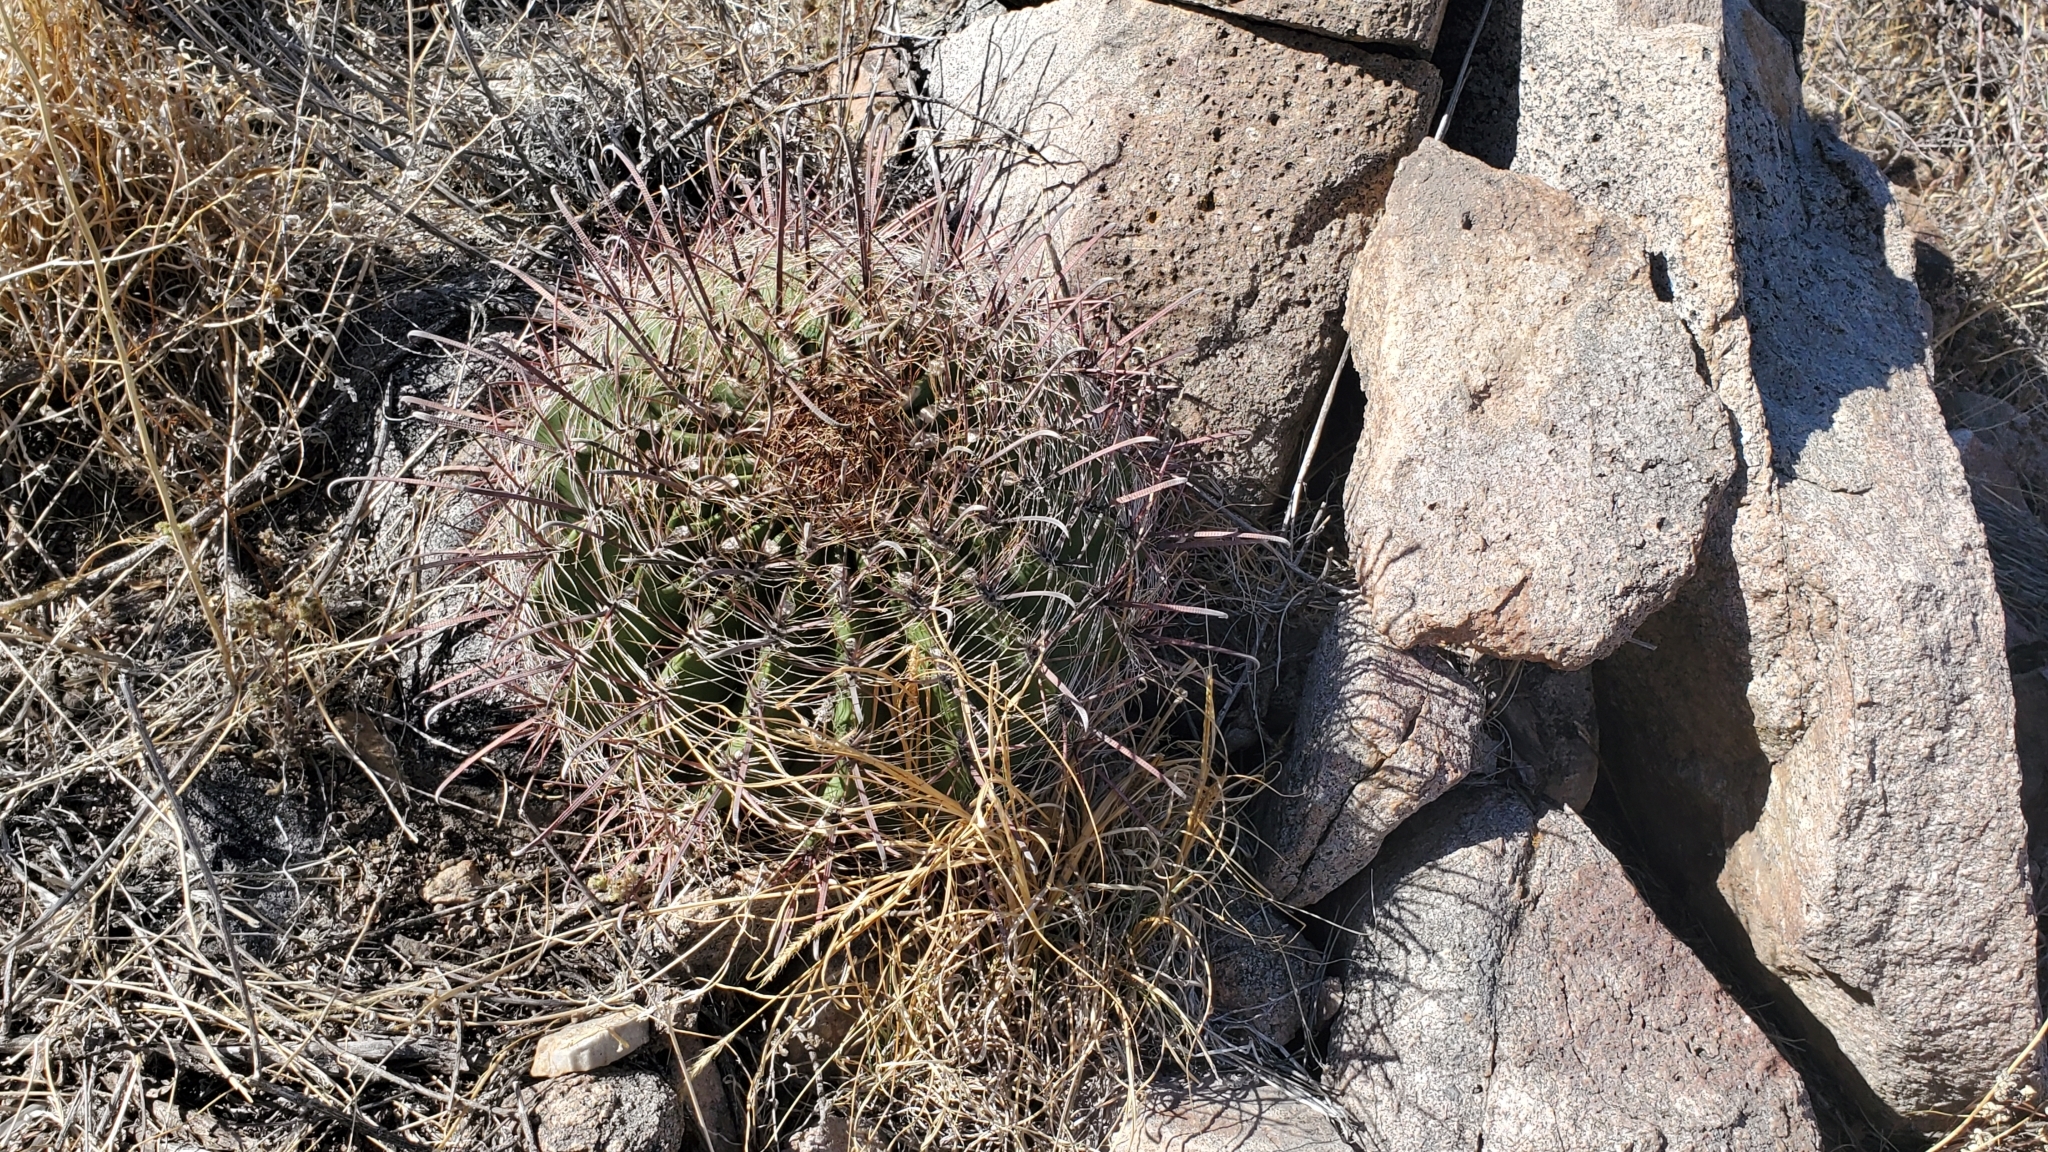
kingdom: Plantae
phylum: Tracheophyta
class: Magnoliopsida
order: Caryophyllales
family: Cactaceae
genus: Ferocactus
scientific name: Ferocactus wislizeni
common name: Candy barrel cactus
